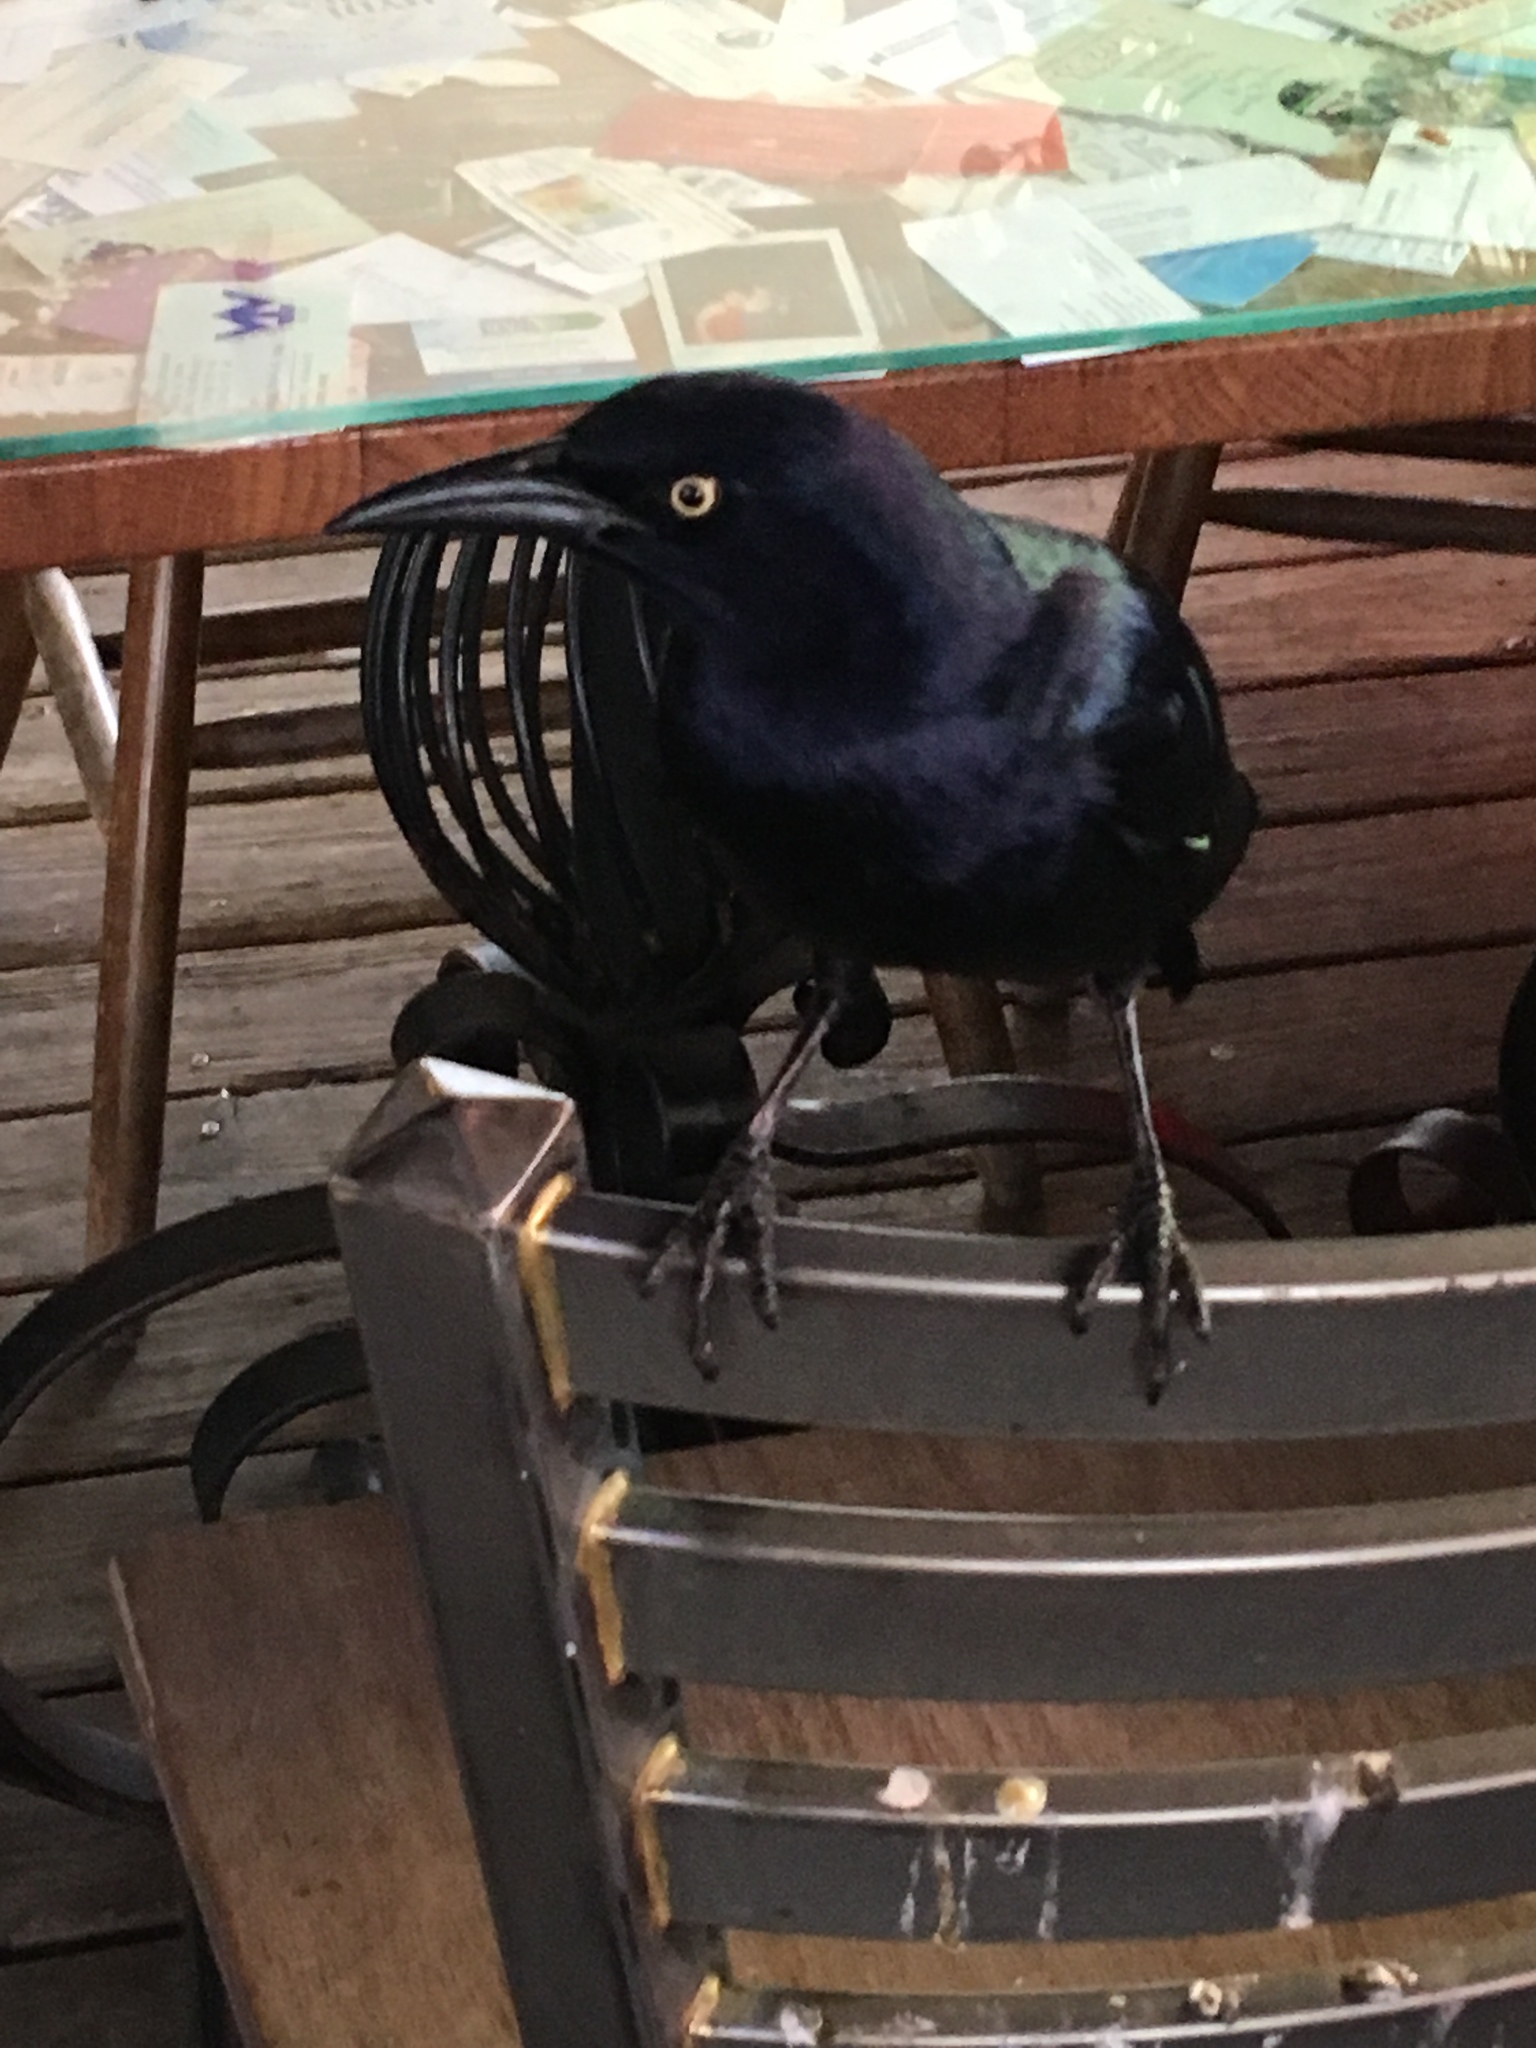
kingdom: Animalia
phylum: Chordata
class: Aves
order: Passeriformes
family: Icteridae
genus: Quiscalus
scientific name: Quiscalus mexicanus
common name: Great-tailed grackle
